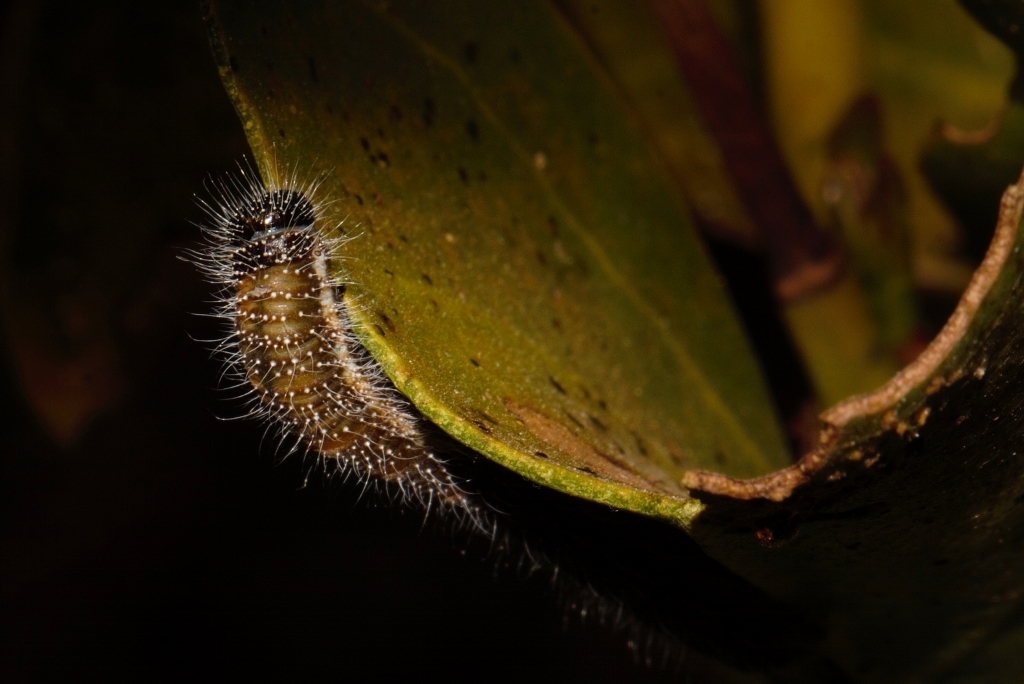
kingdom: Animalia
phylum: Arthropoda
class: Insecta
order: Lepidoptera
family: Pieridae
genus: Mylothris
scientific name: Mylothris agathina
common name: Eastern dotted border
